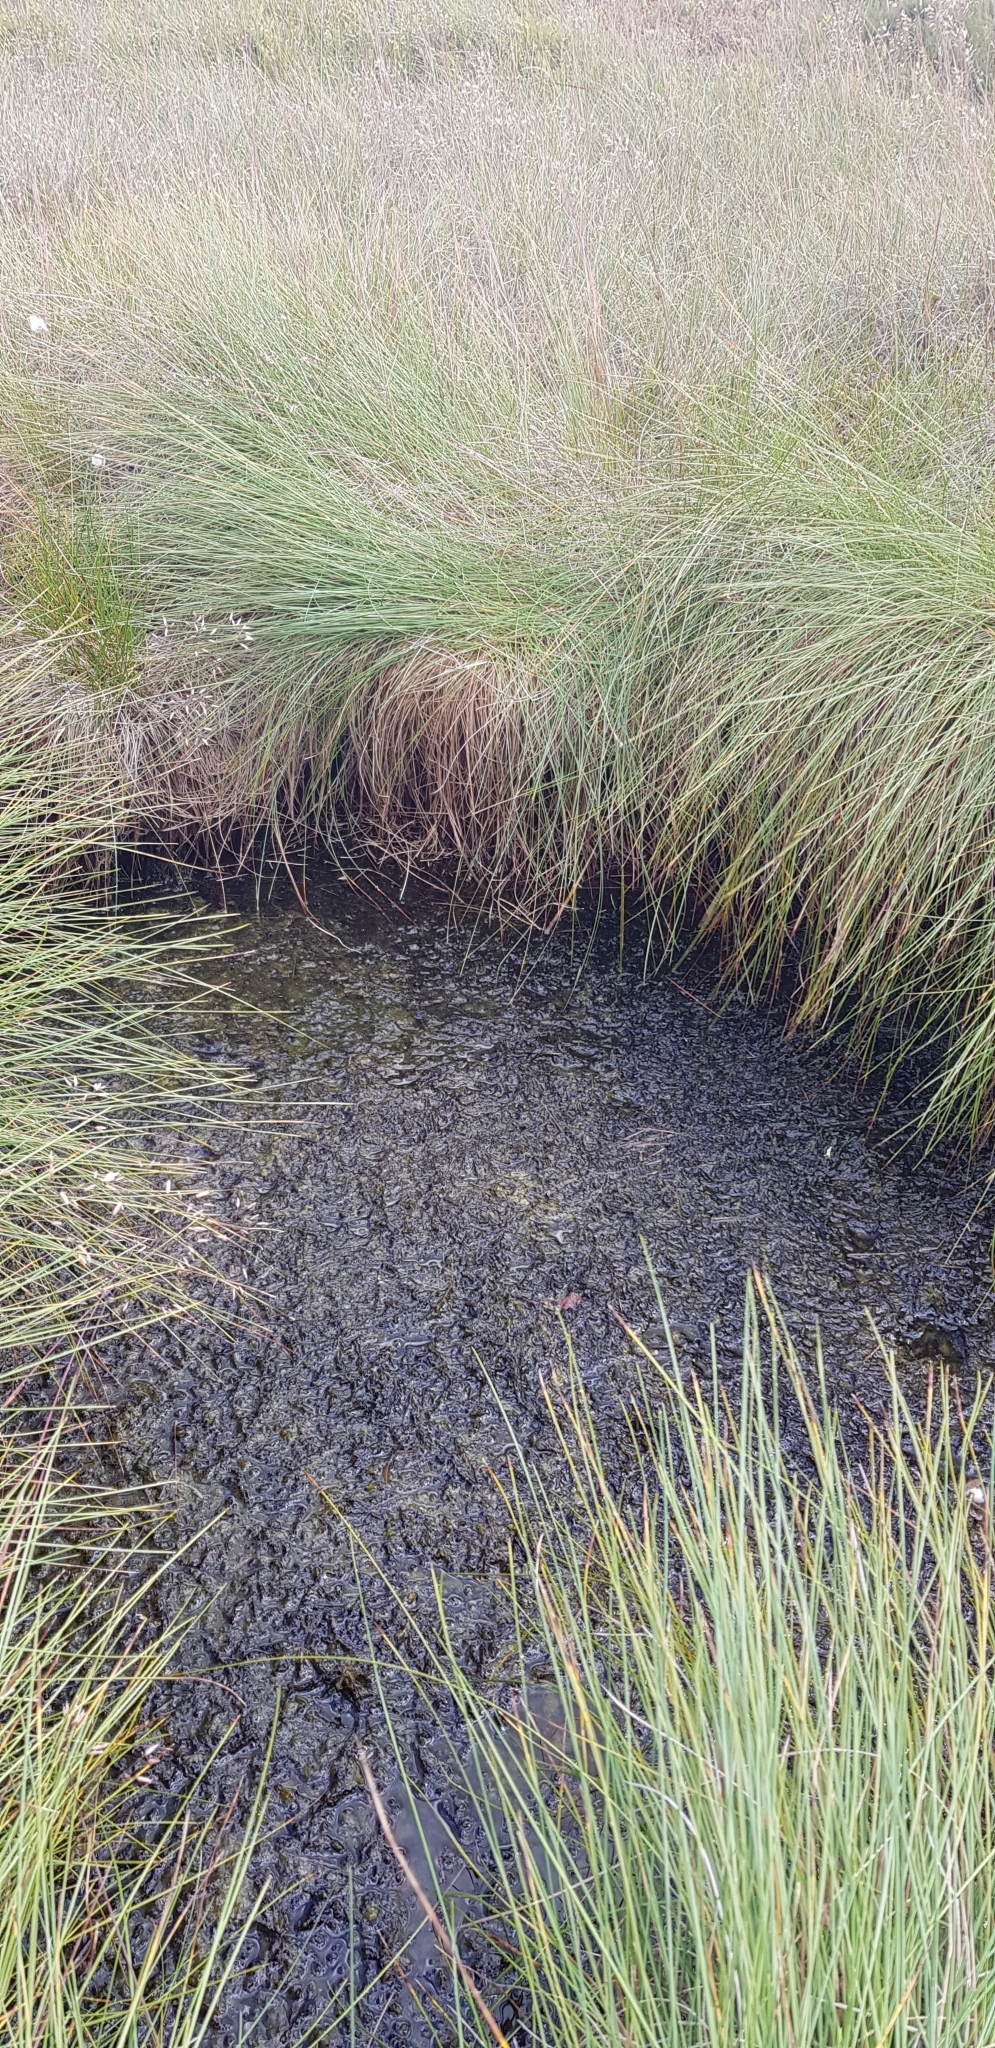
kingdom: Plantae
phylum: Bryophyta
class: Bryopsida
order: Hypnales
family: Calliergonaceae
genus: Warnstorfia
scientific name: Warnstorfia fluitans
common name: Floating hook moss
